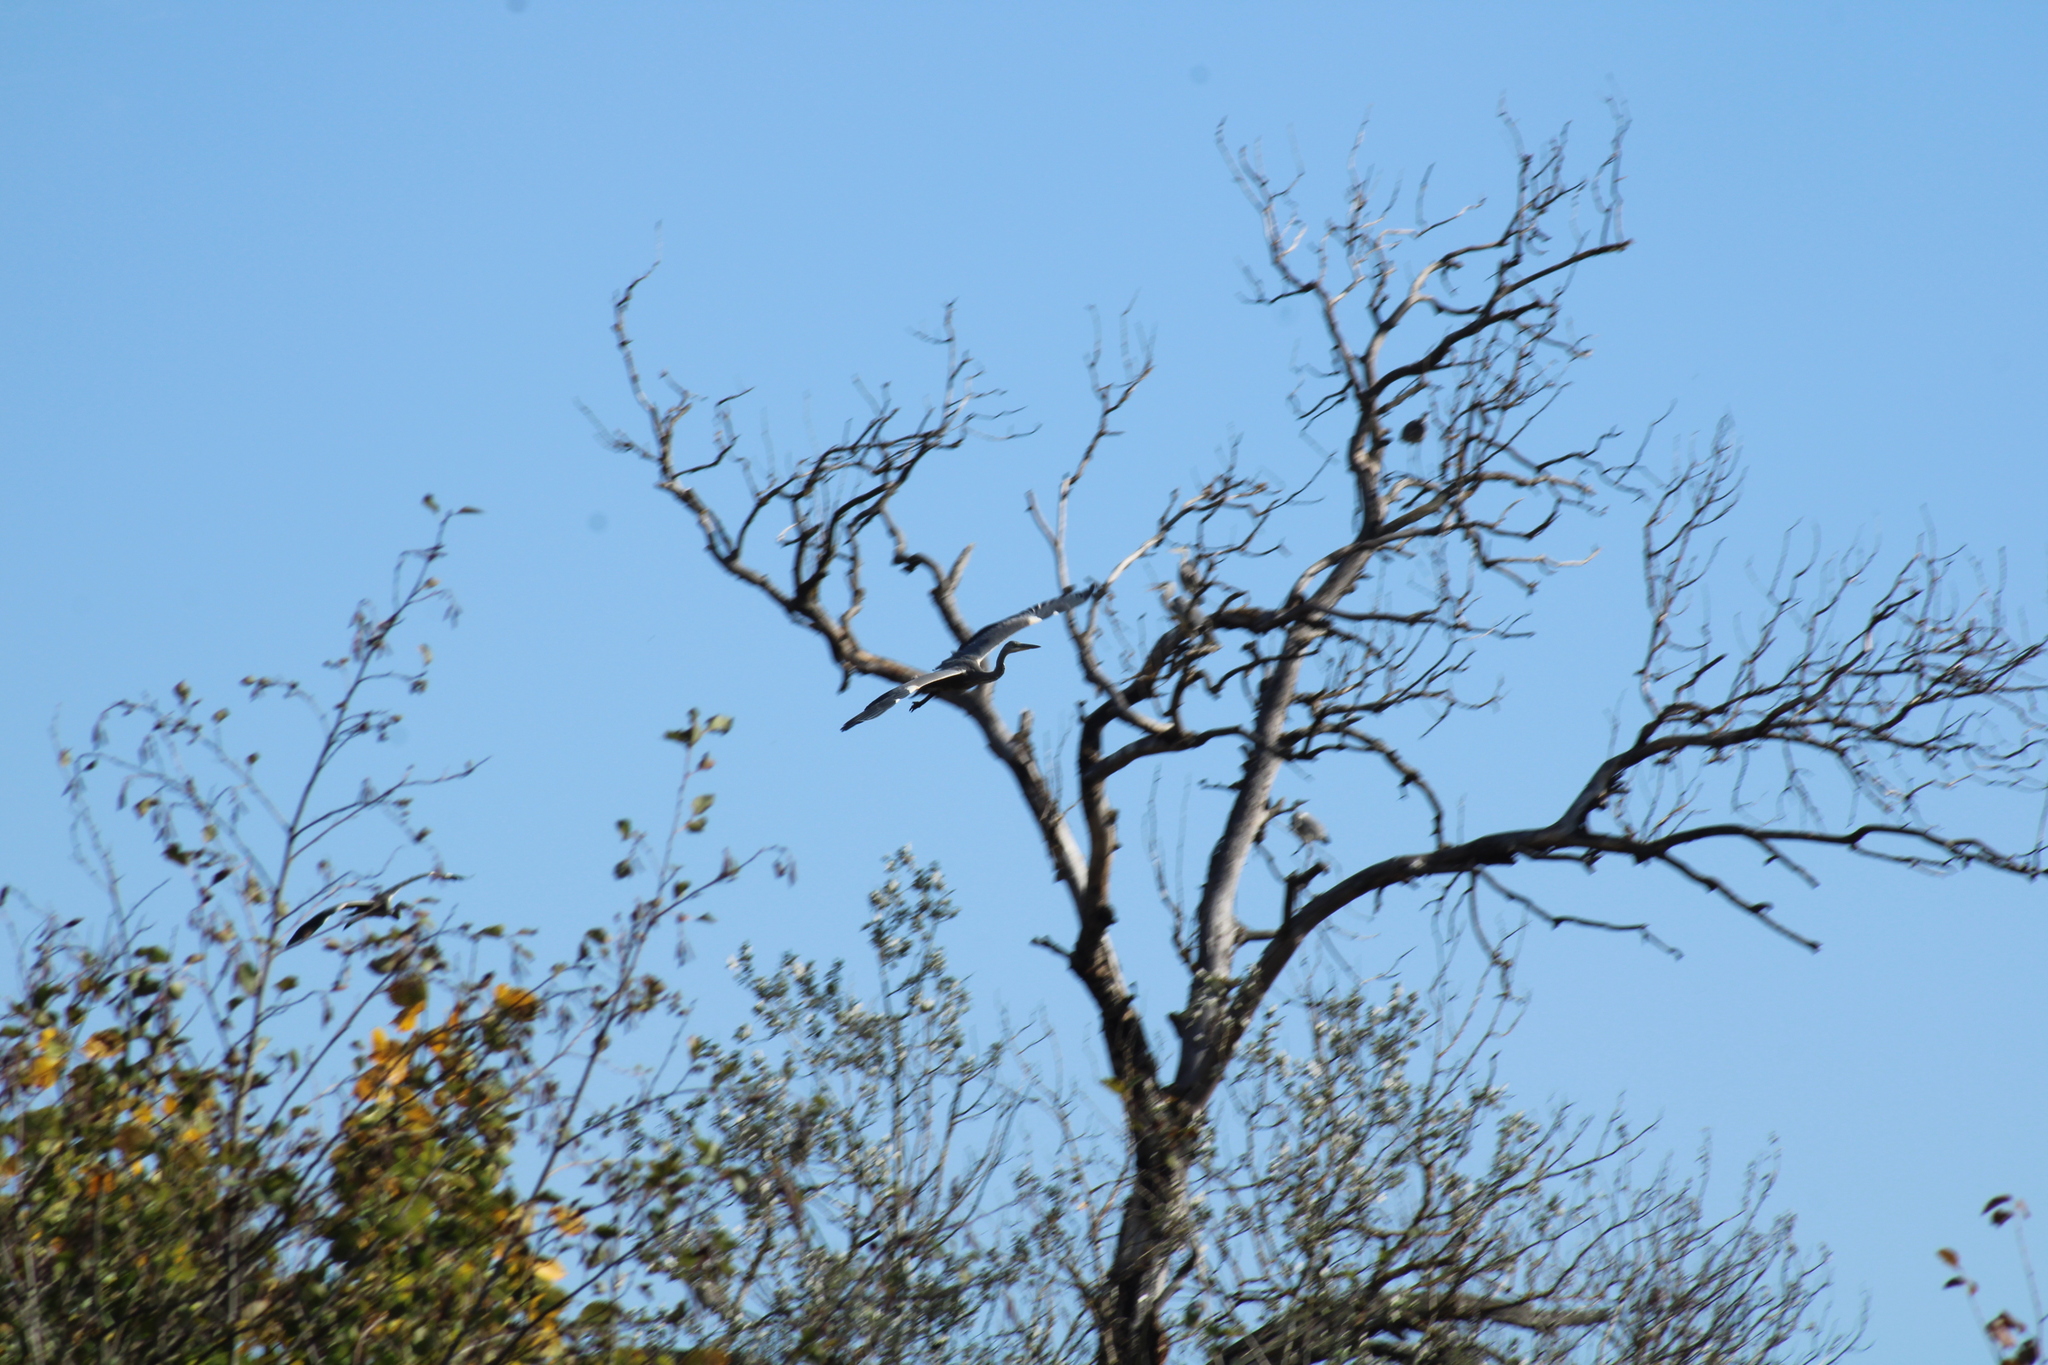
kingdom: Animalia
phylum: Chordata
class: Aves
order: Pelecaniformes
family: Ardeidae
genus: Ardea
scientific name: Ardea cinerea
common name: Grey heron
